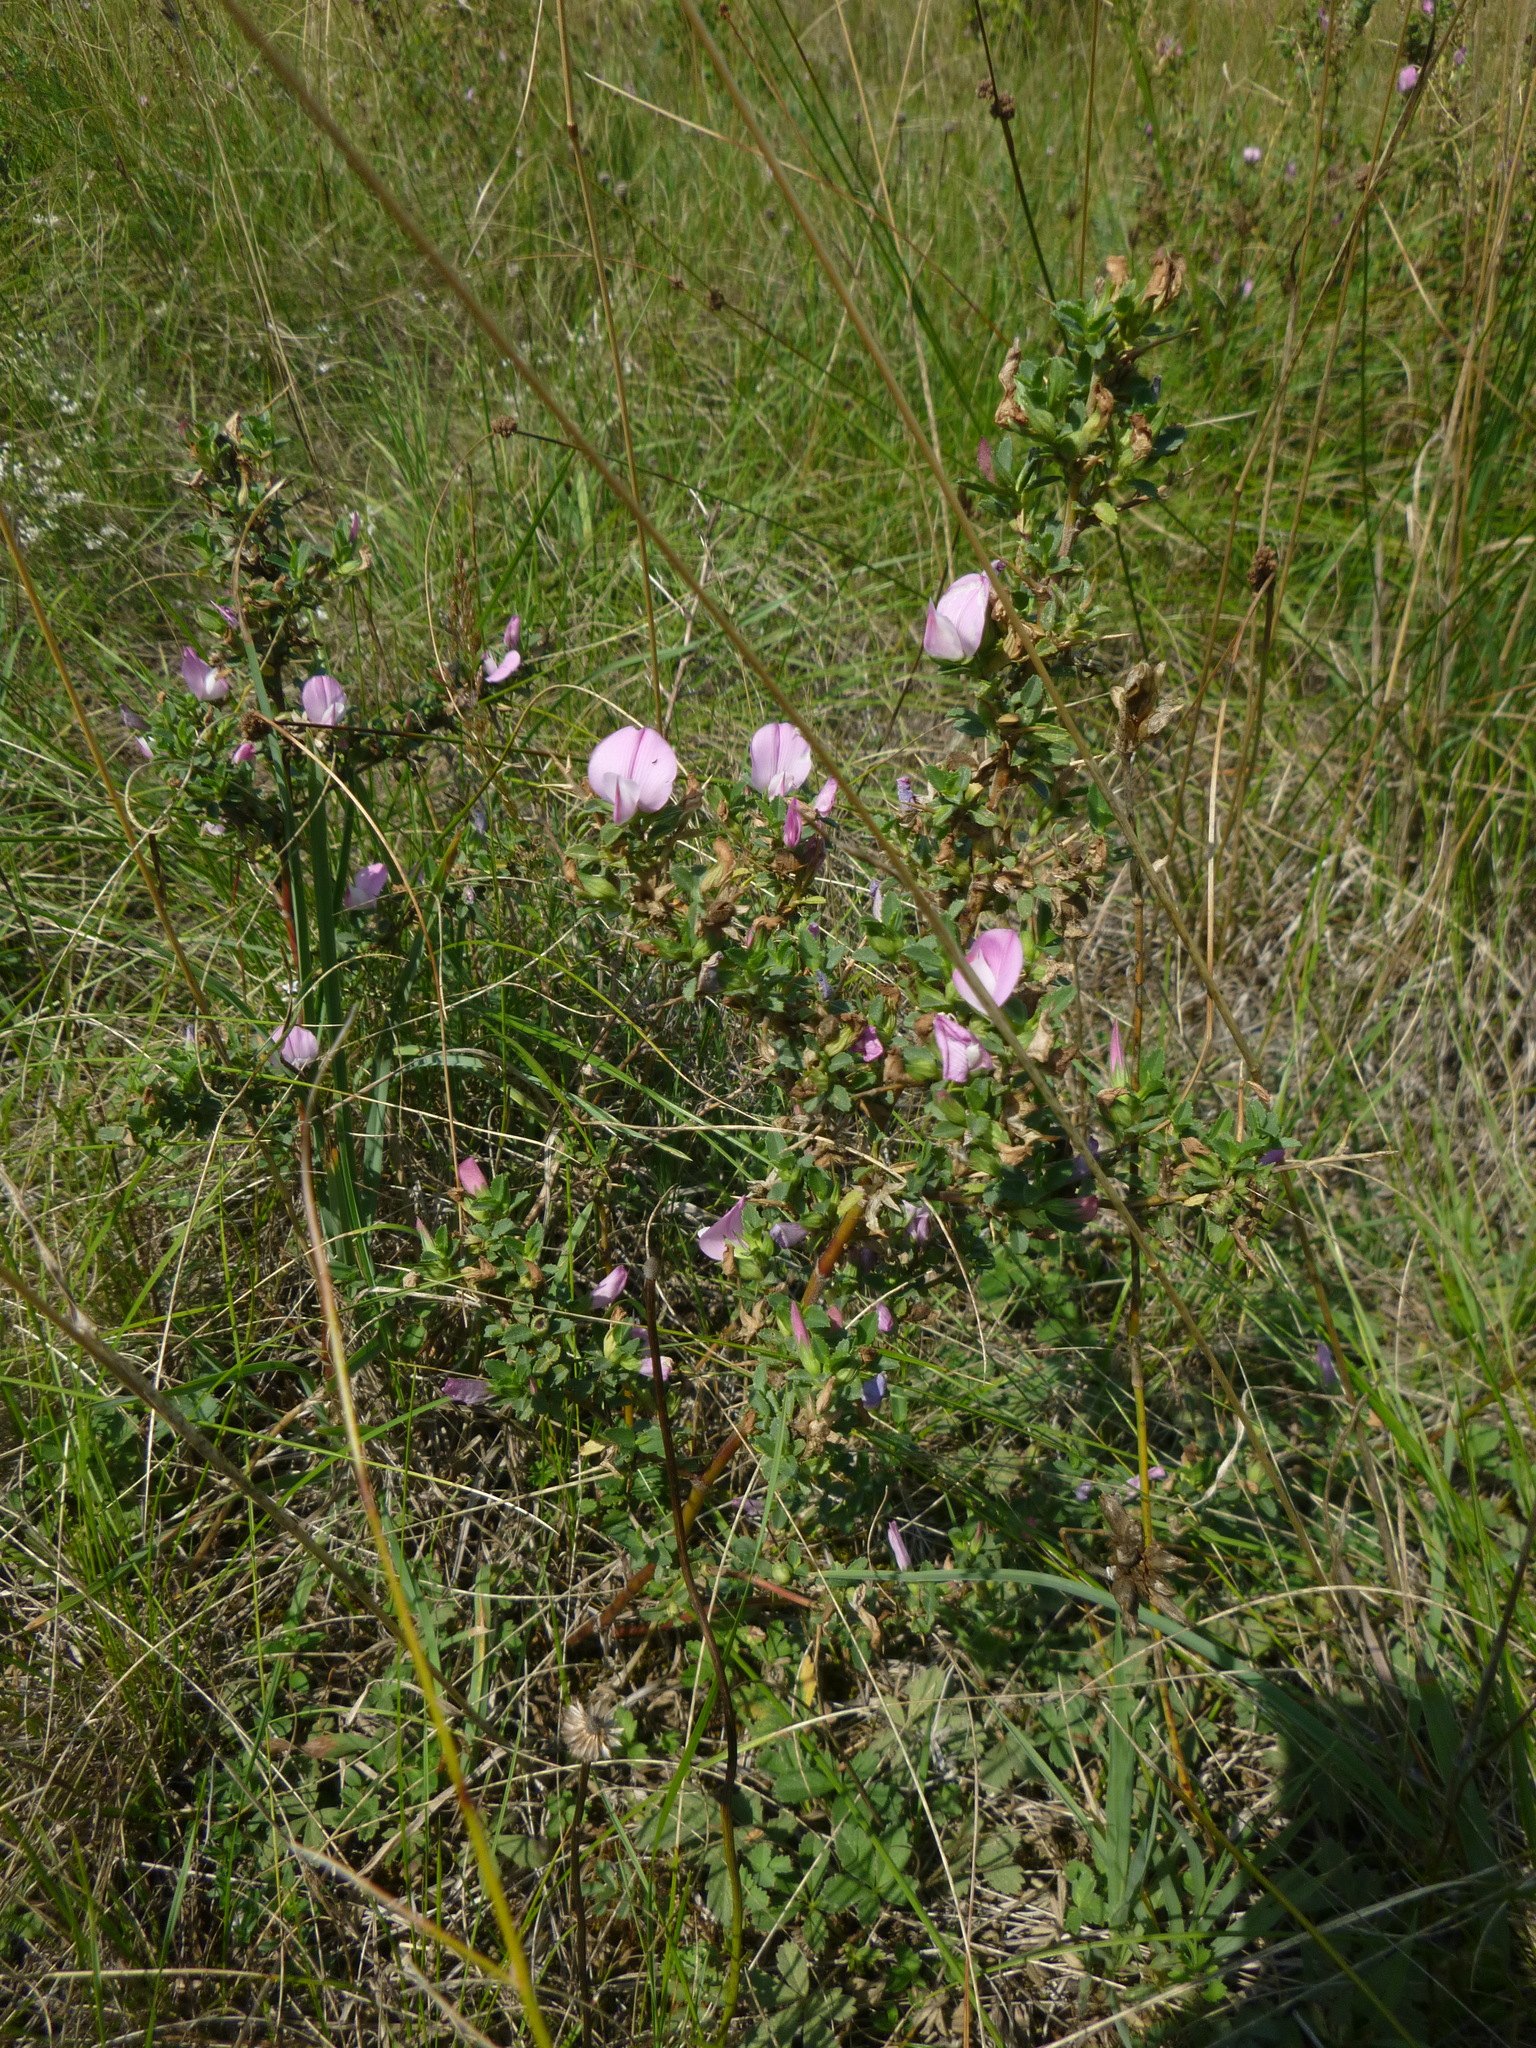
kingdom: Plantae
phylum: Tracheophyta
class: Magnoliopsida
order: Fabales
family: Fabaceae
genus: Ononis
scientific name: Ononis spinosa
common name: Spiny restharrow
